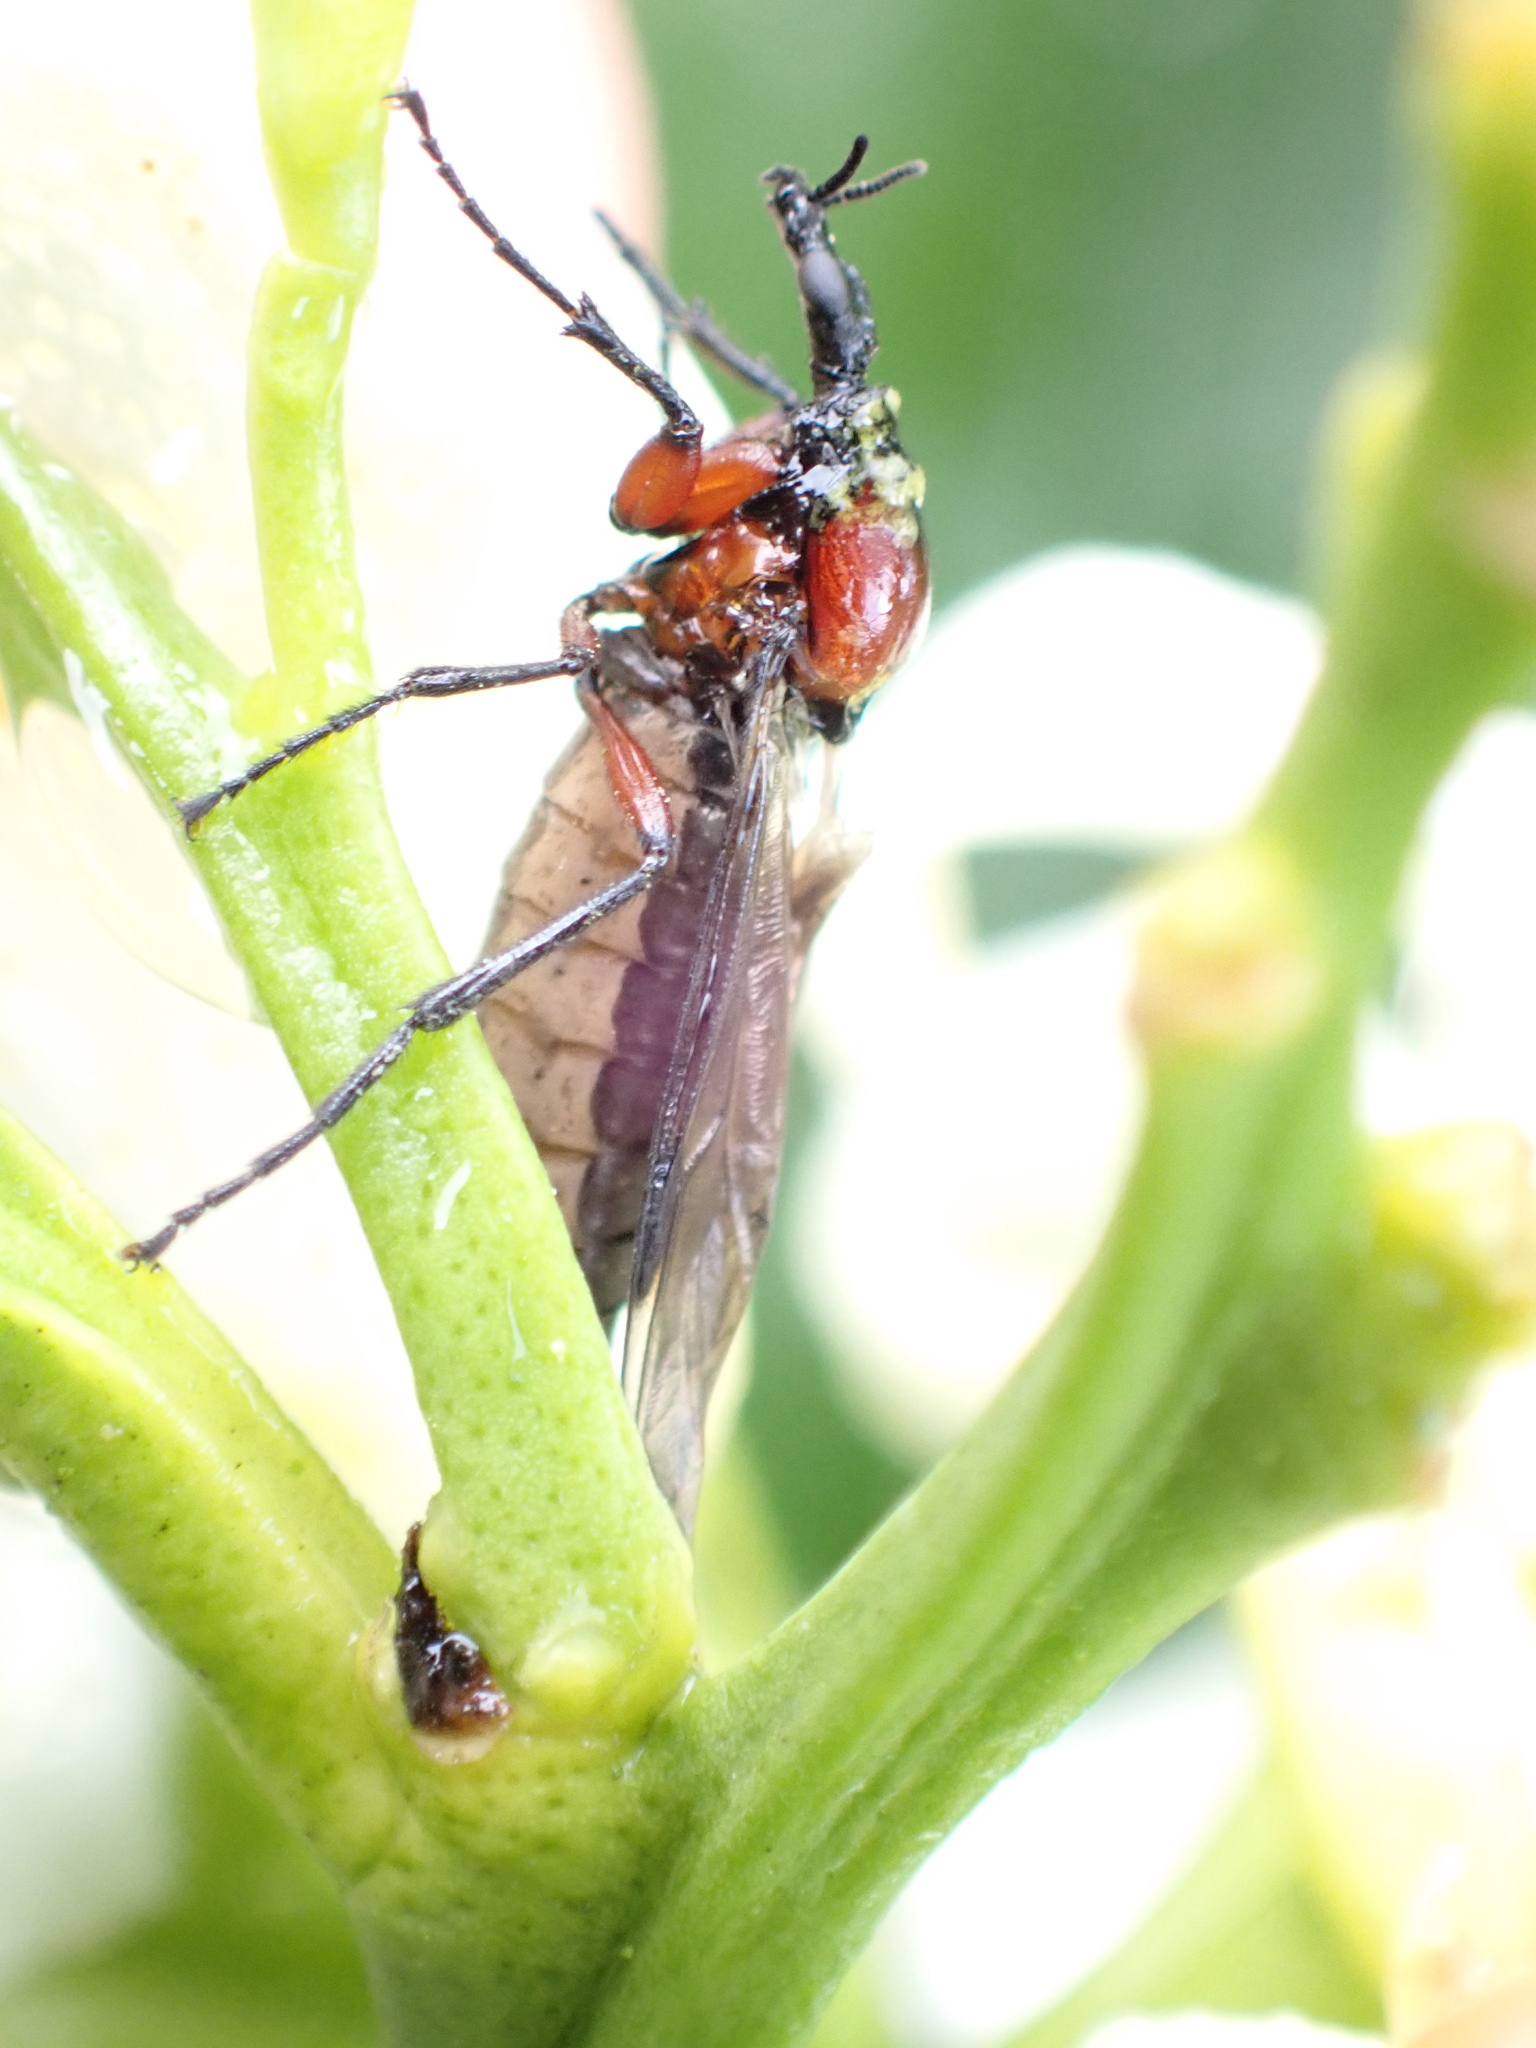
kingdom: Animalia
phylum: Arthropoda
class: Insecta
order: Diptera
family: Bibionidae
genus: Dilophus
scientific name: Dilophus nigrostigma
